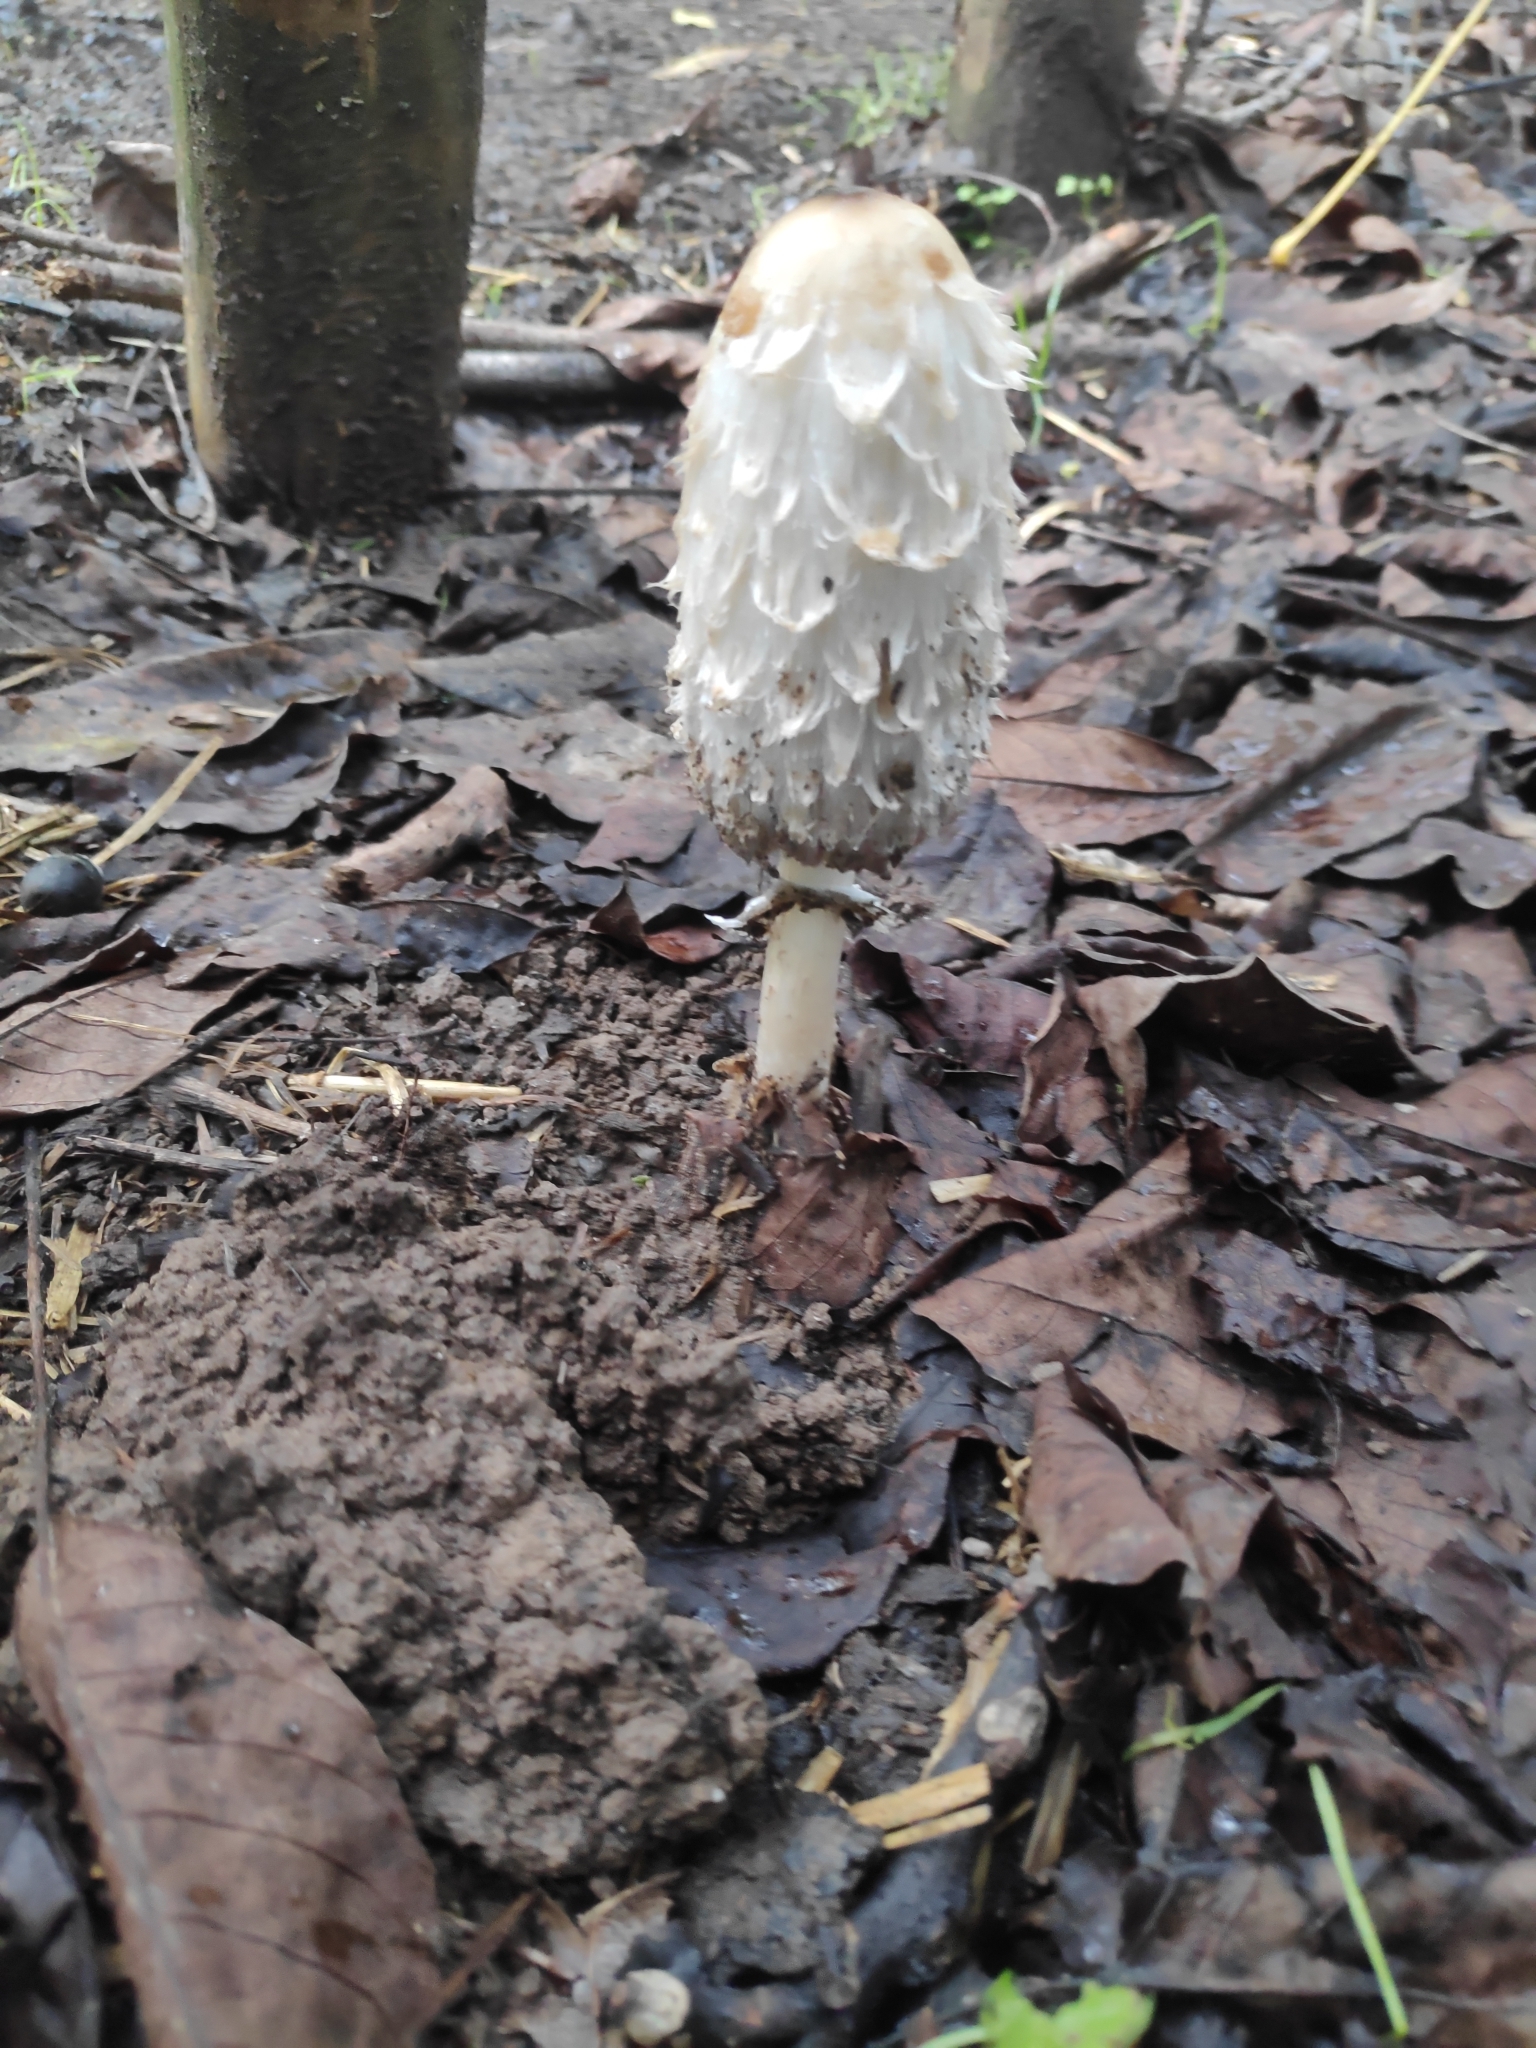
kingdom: Fungi
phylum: Basidiomycota
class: Agaricomycetes
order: Agaricales
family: Agaricaceae
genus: Coprinus
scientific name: Coprinus comatus
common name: Lawyer's wig
